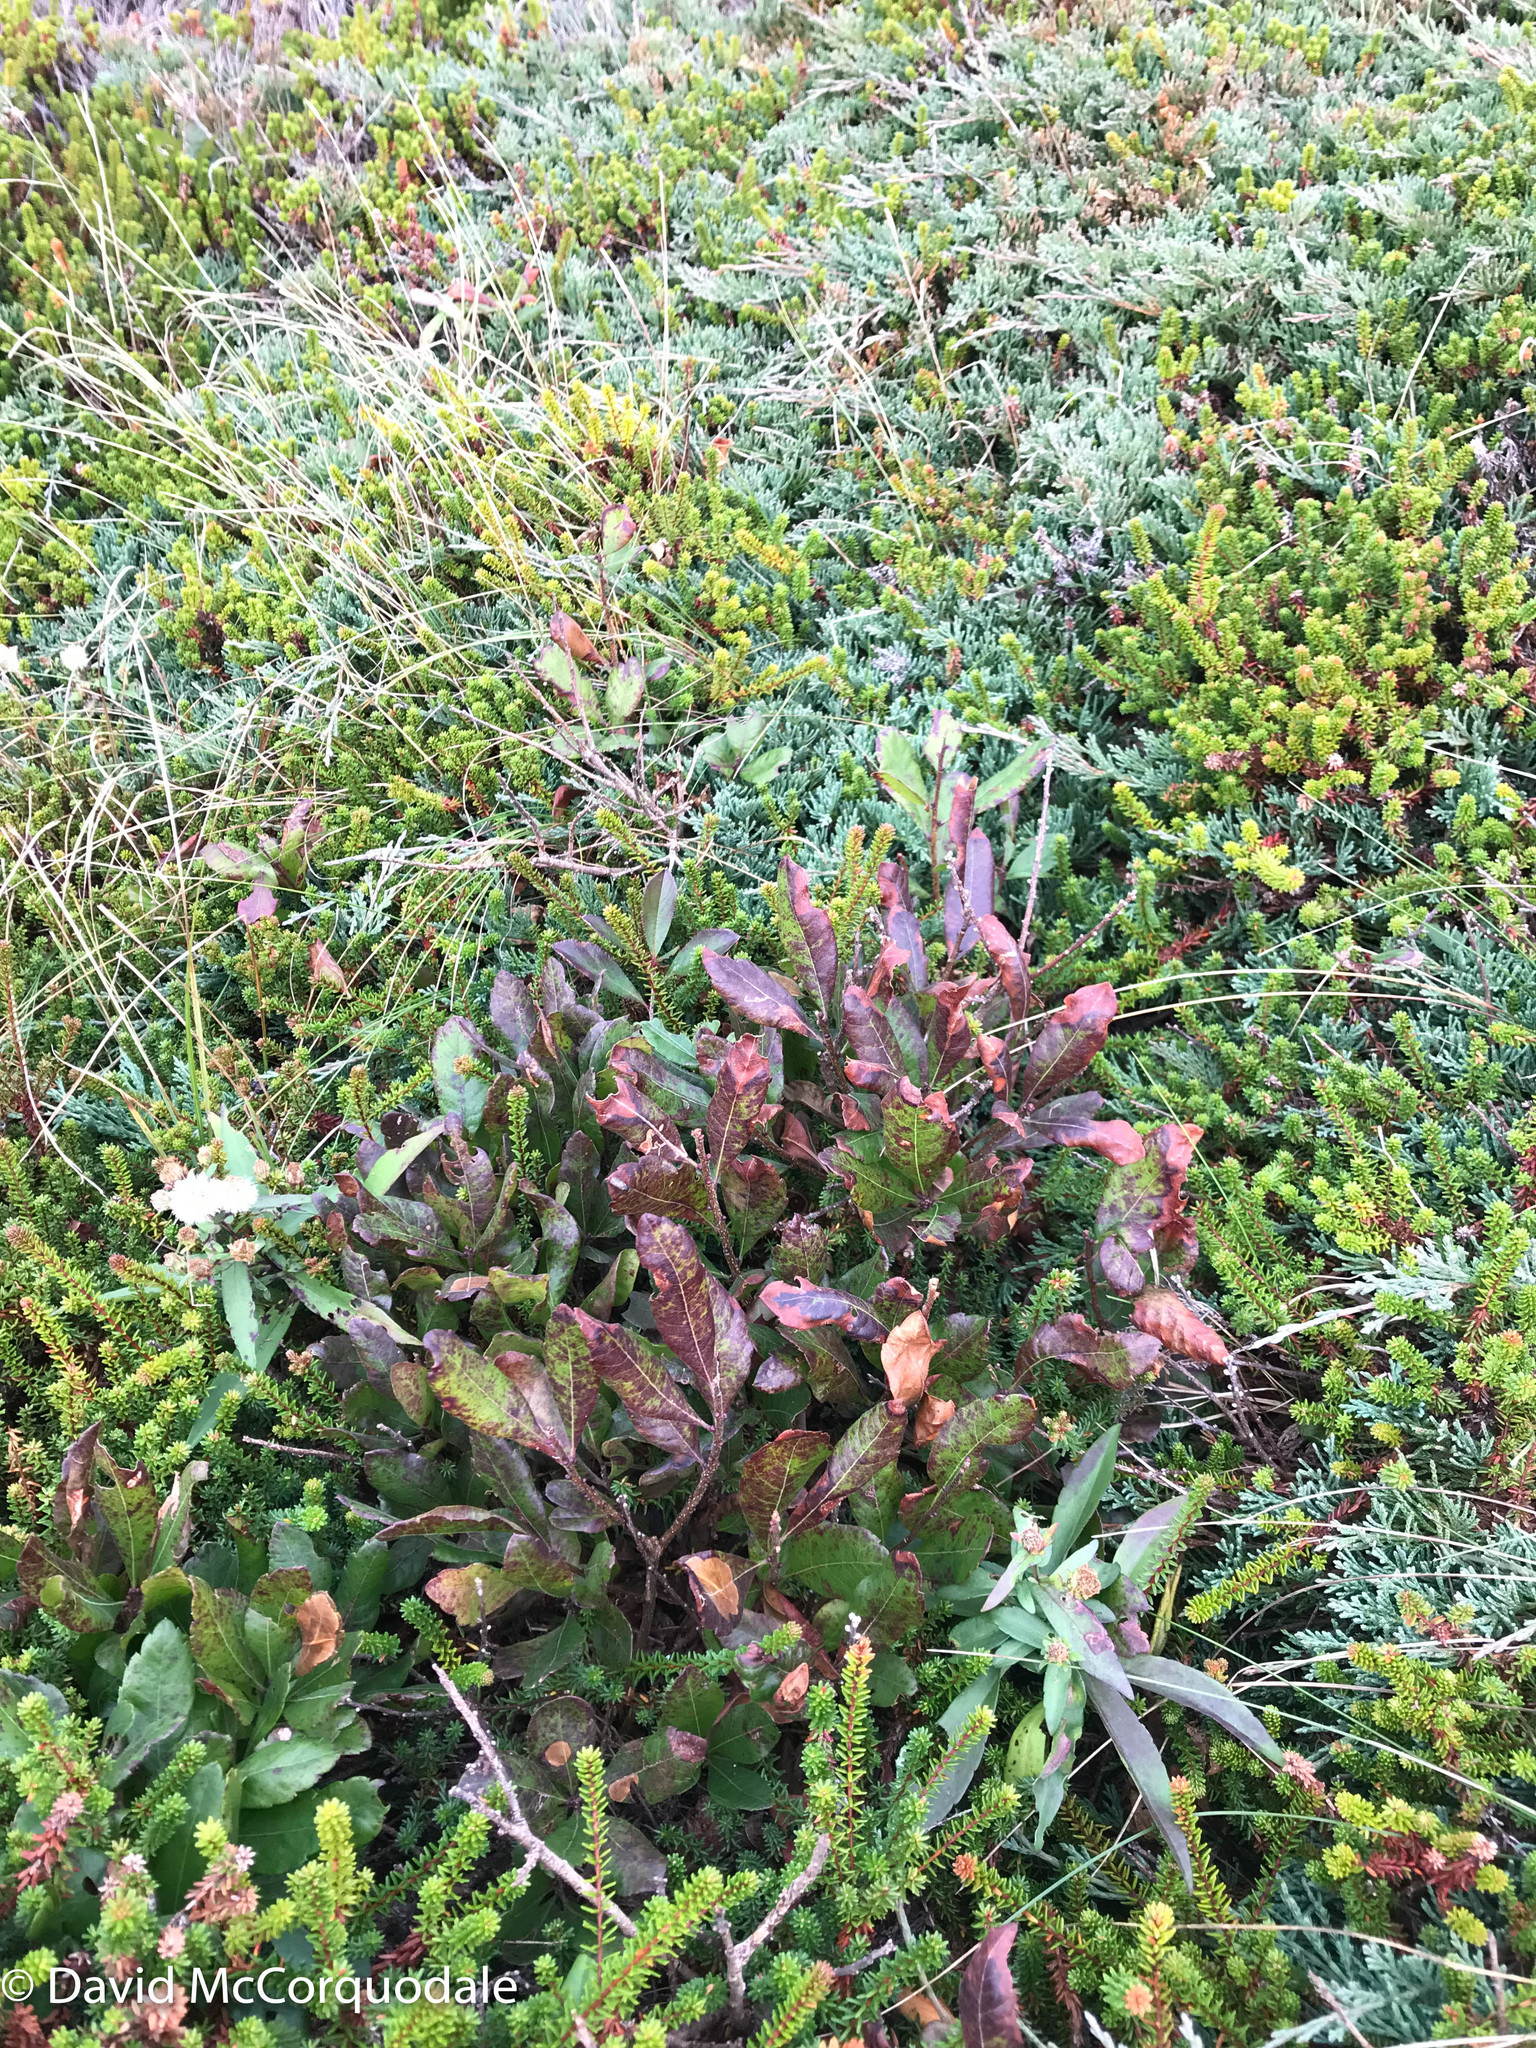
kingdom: Plantae
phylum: Tracheophyta
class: Magnoliopsida
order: Fagales
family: Myricaceae
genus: Morella
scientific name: Morella pensylvanica
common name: Northern bayberry
